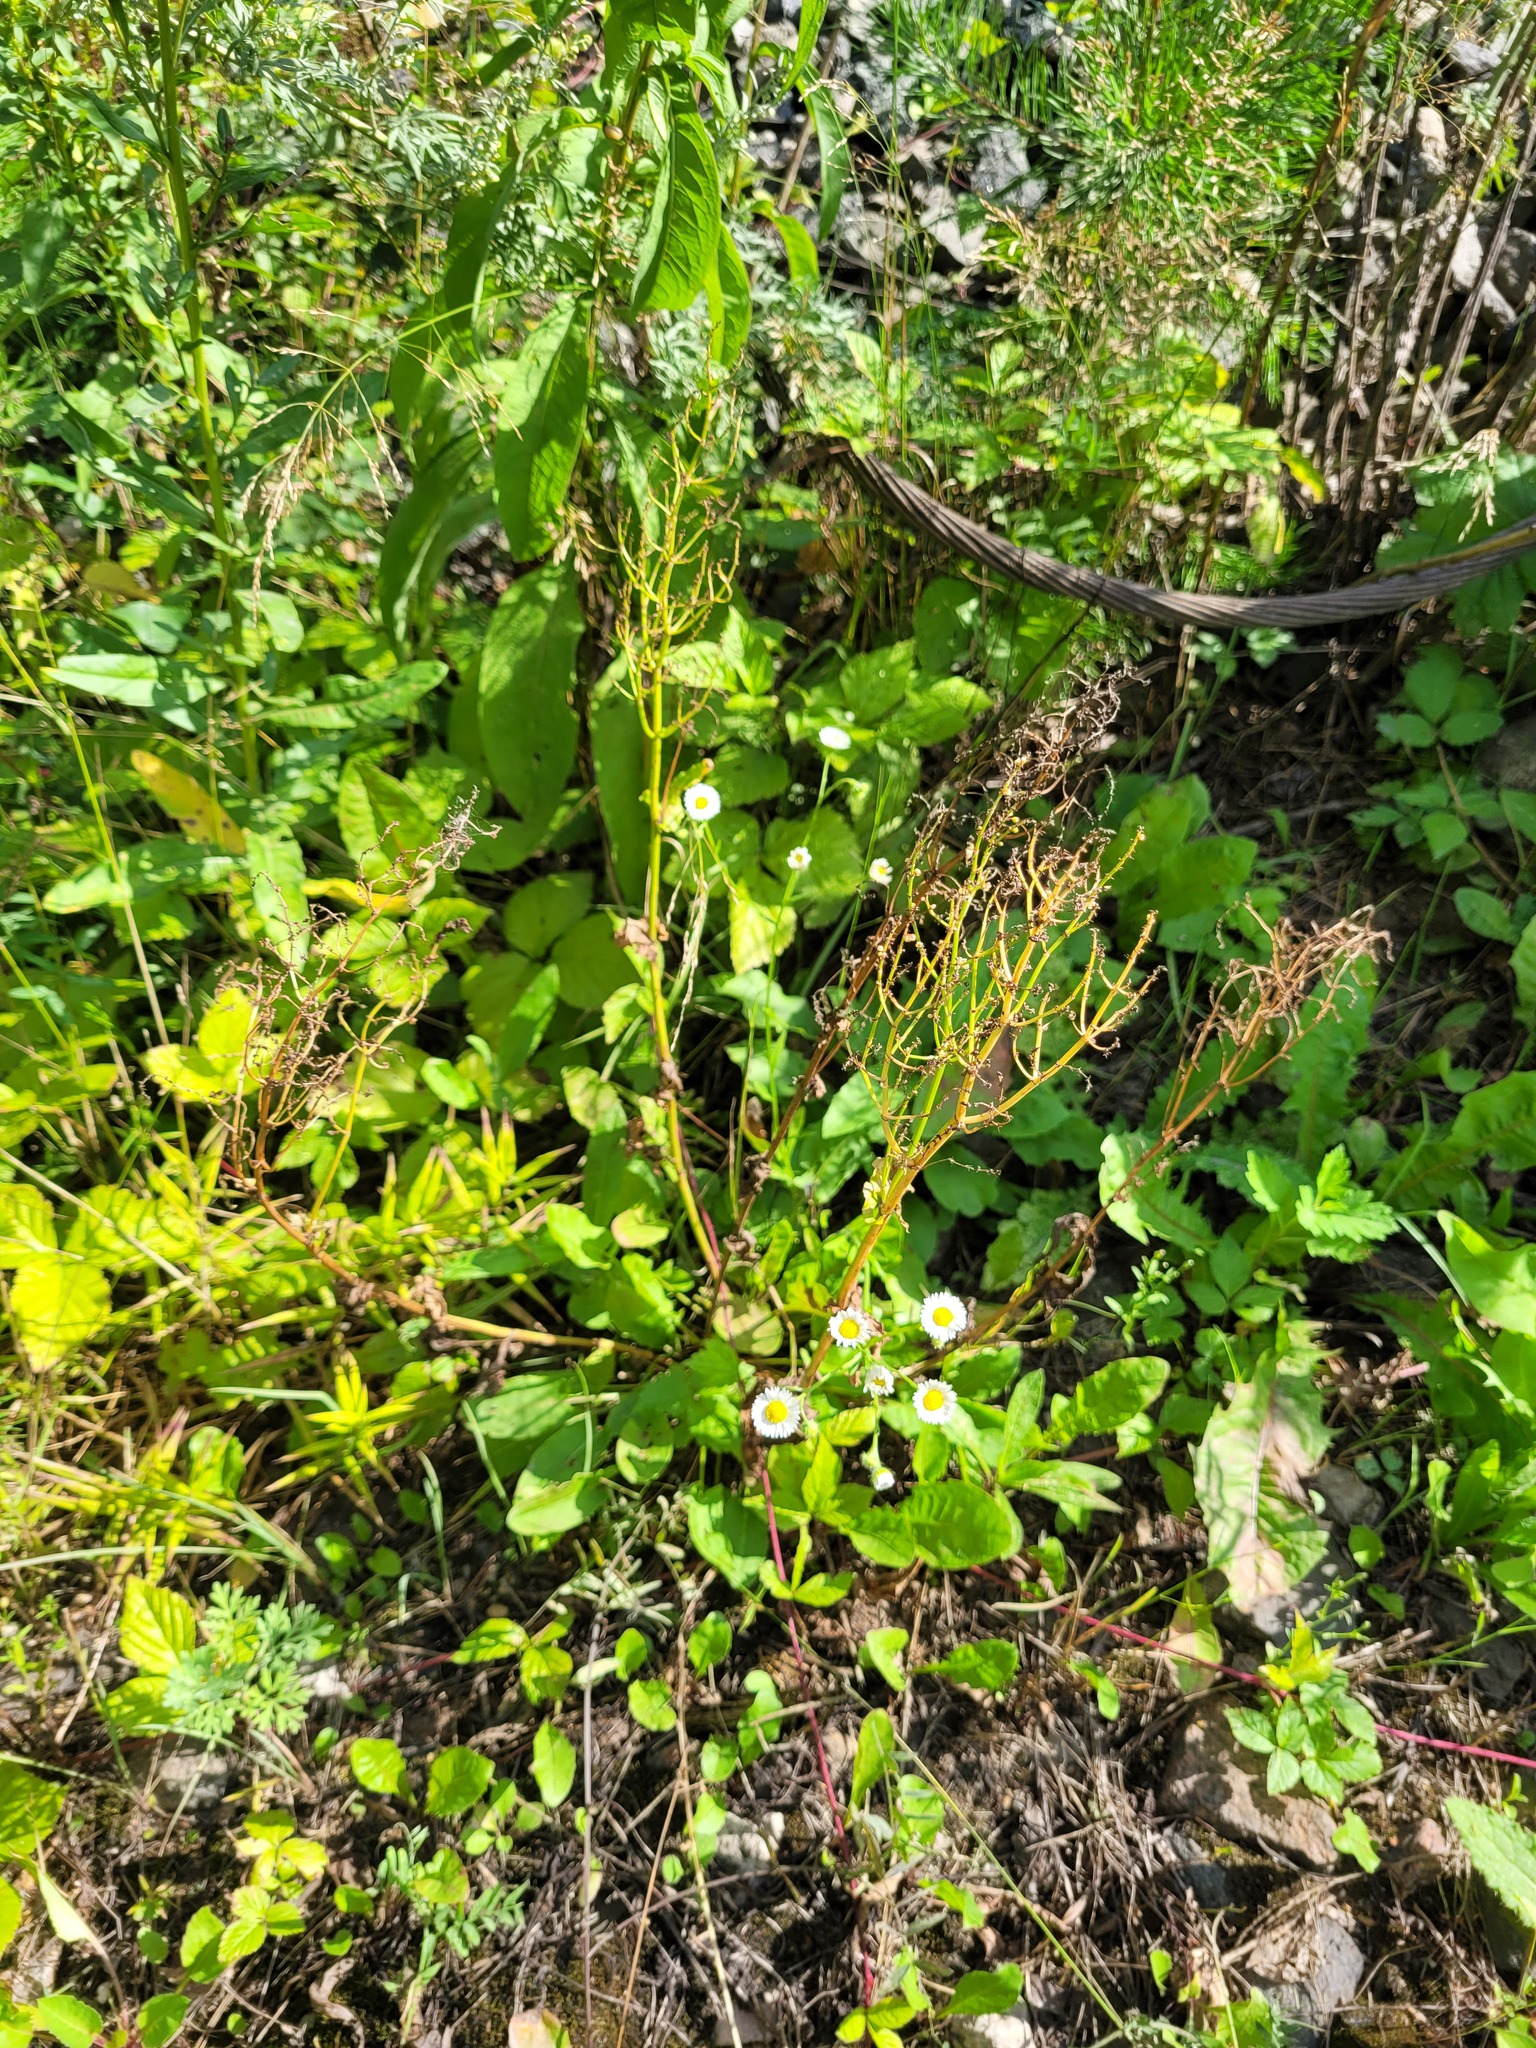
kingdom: Plantae
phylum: Tracheophyta
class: Magnoliopsida
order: Caryophyllales
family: Polygonaceae
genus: Rumex
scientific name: Rumex thyrsiflorus
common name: Garden sorrel
